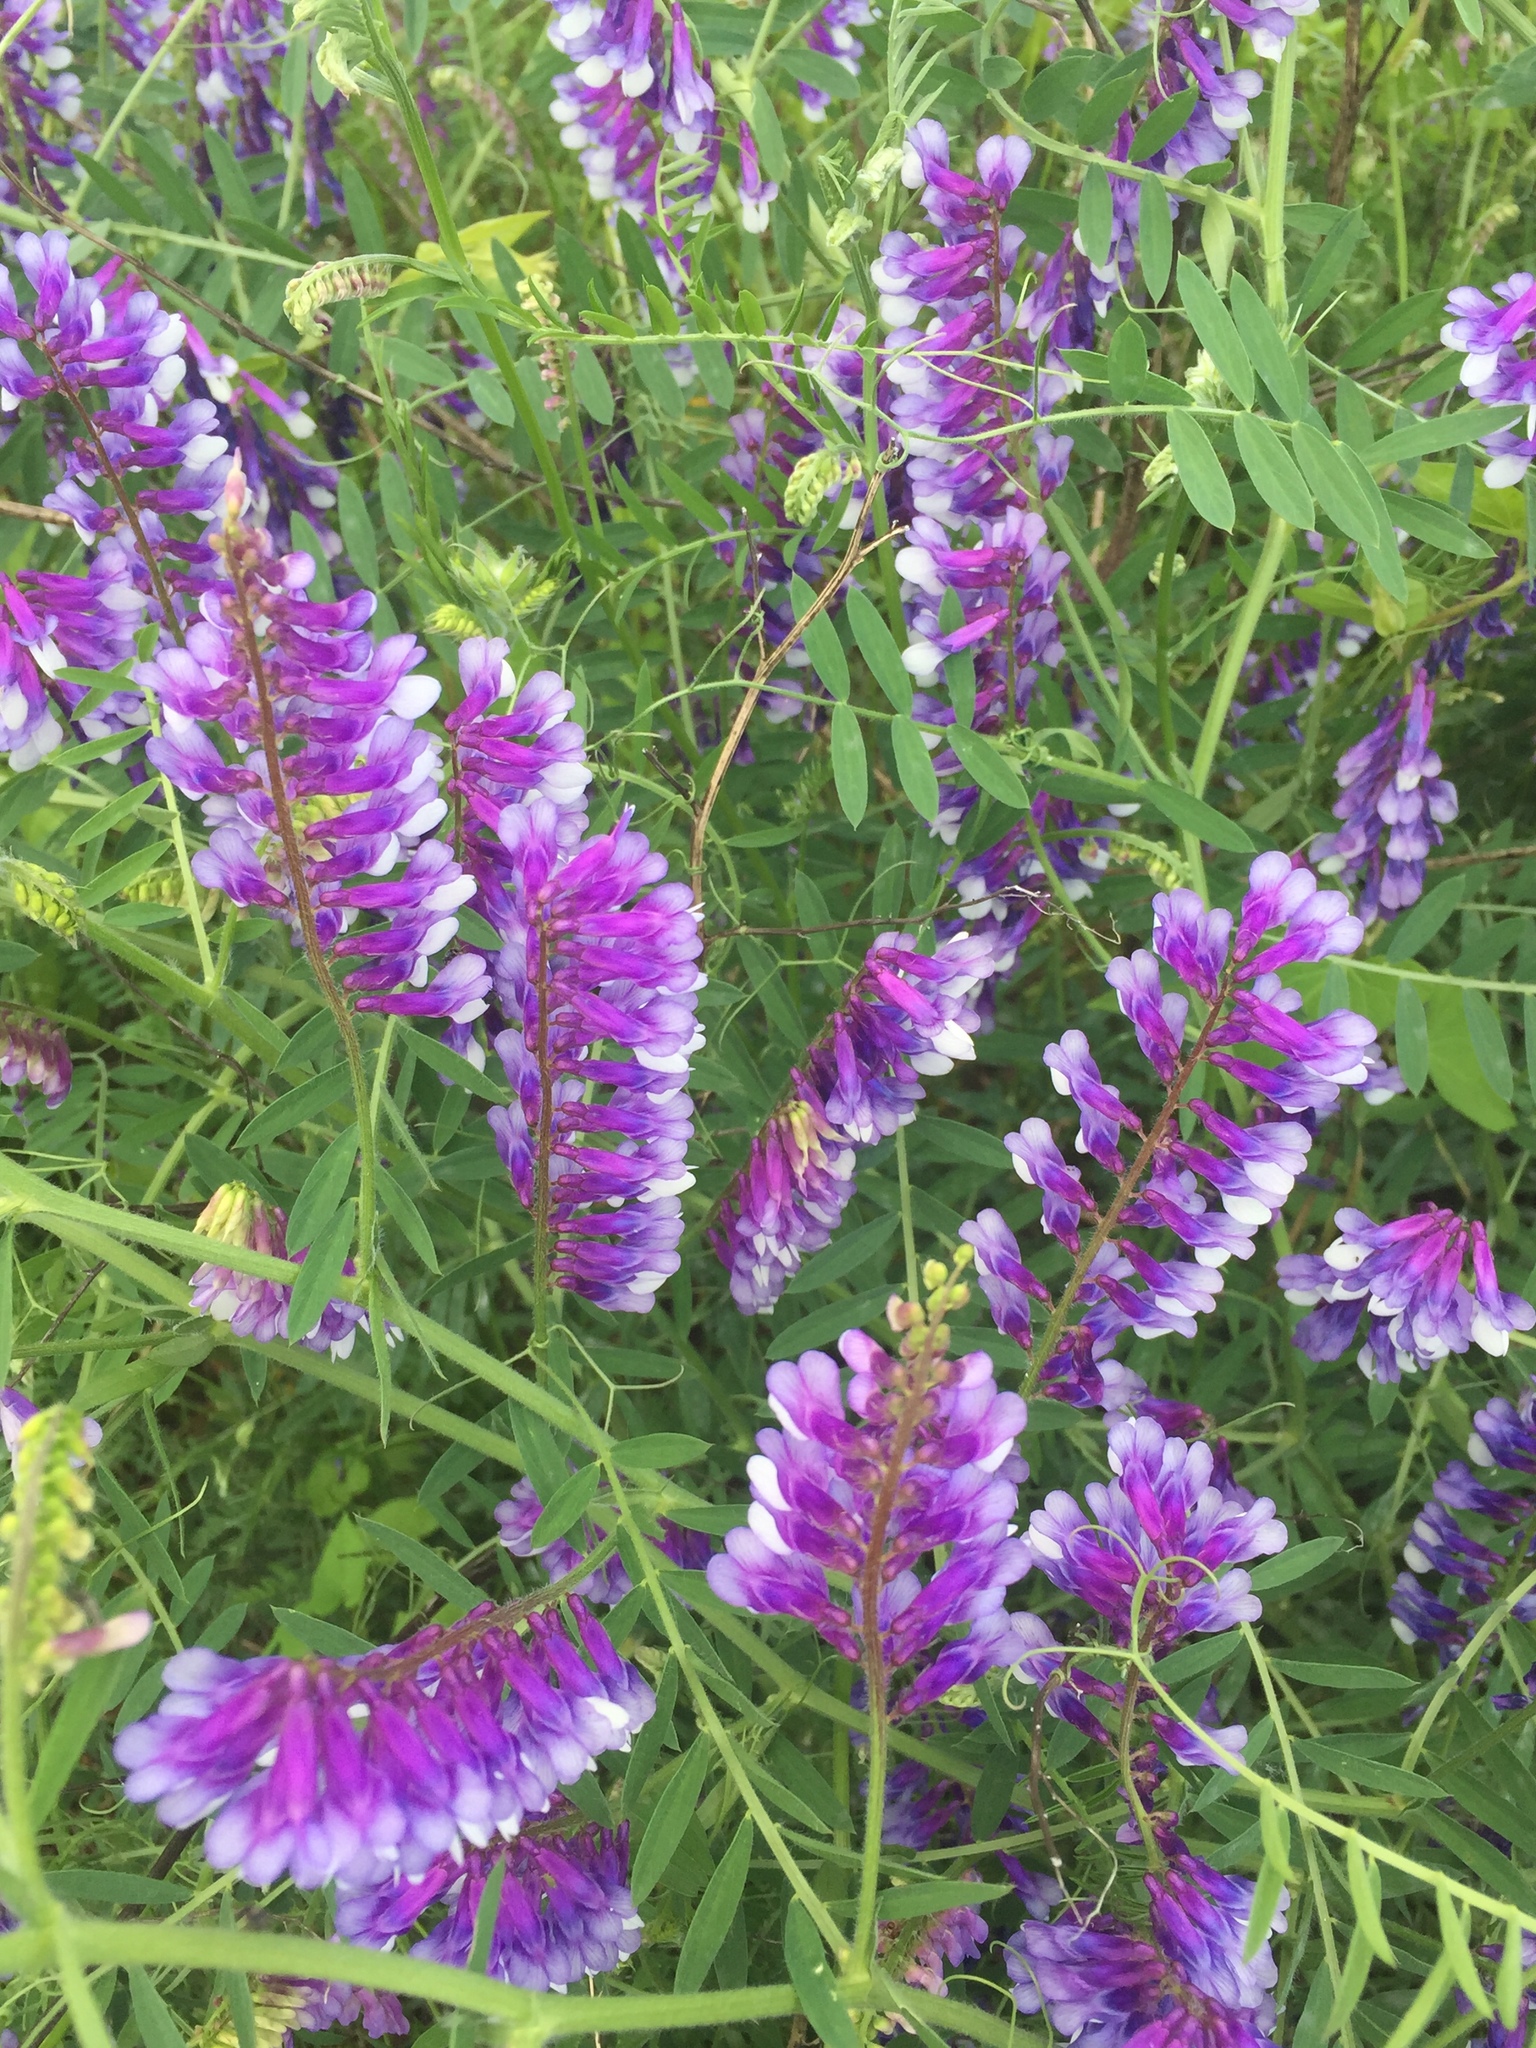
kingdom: Plantae
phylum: Tracheophyta
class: Magnoliopsida
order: Fabales
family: Fabaceae
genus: Vicia
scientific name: Vicia villosa
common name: Fodder vetch
